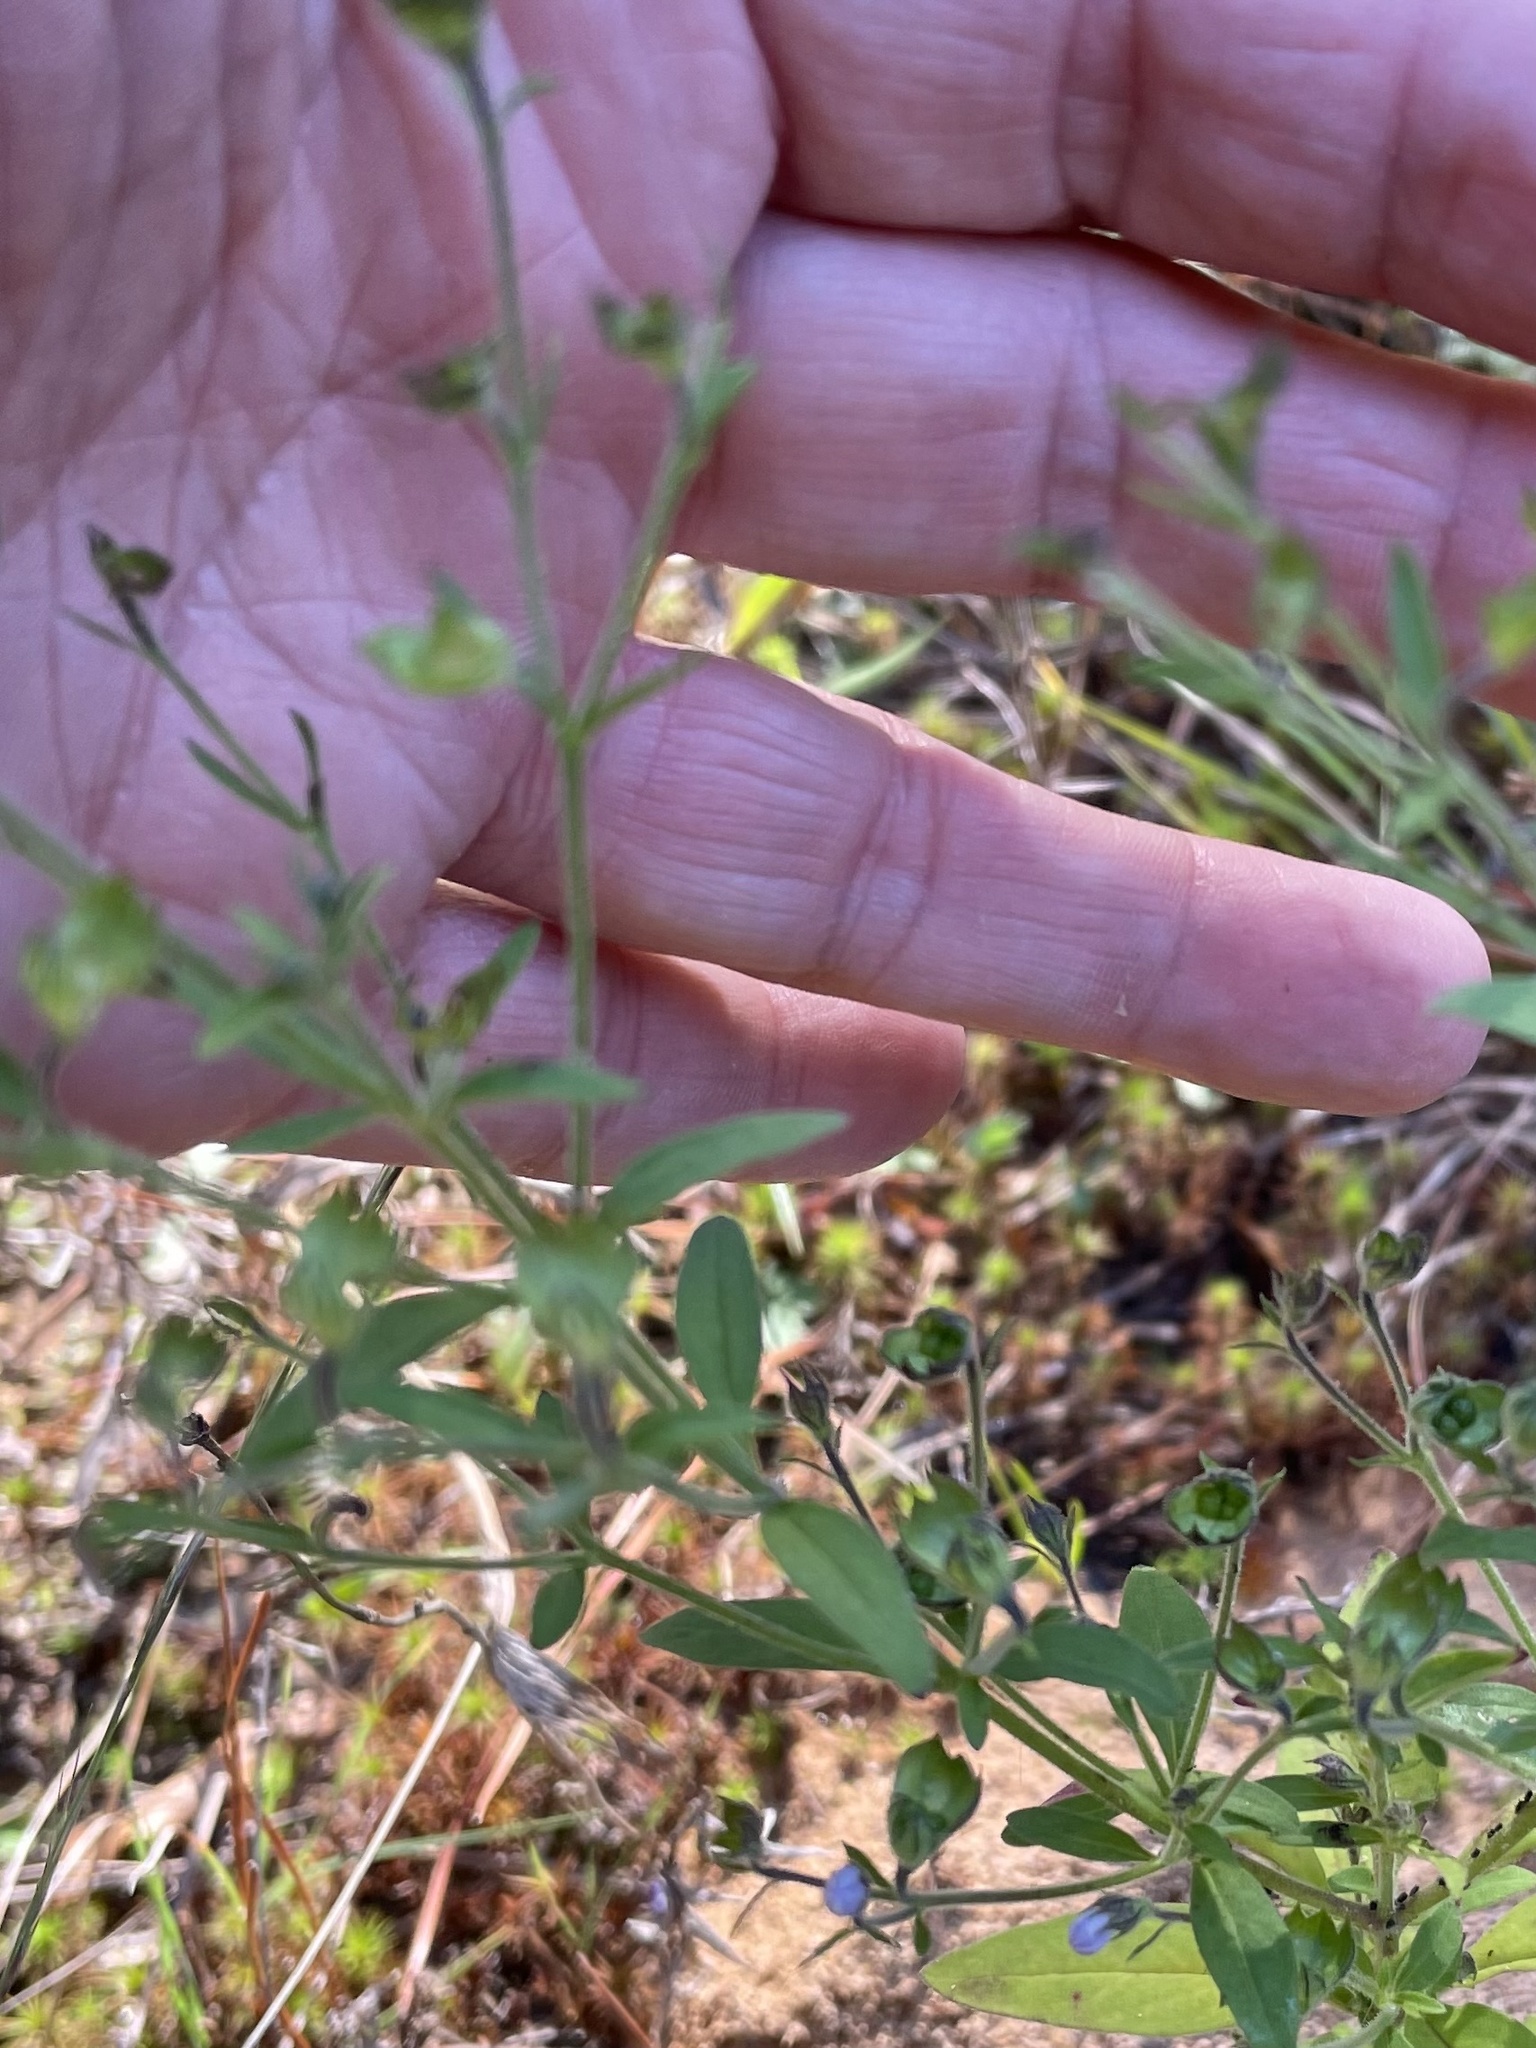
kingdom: Plantae
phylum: Tracheophyta
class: Magnoliopsida
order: Lamiales
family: Lamiaceae
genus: Trichostema
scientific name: Trichostema dichotomum
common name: Bastard pennyroyal
